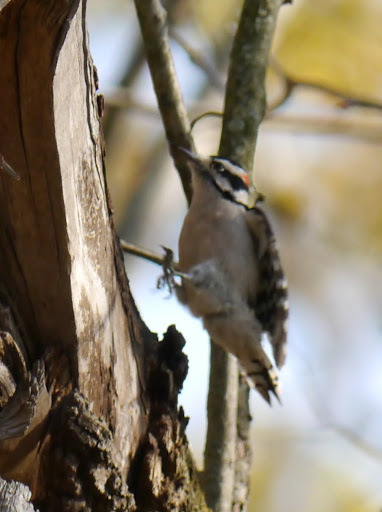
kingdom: Animalia
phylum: Chordata
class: Aves
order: Piciformes
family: Picidae
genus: Dryobates
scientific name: Dryobates pubescens
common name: Downy woodpecker
